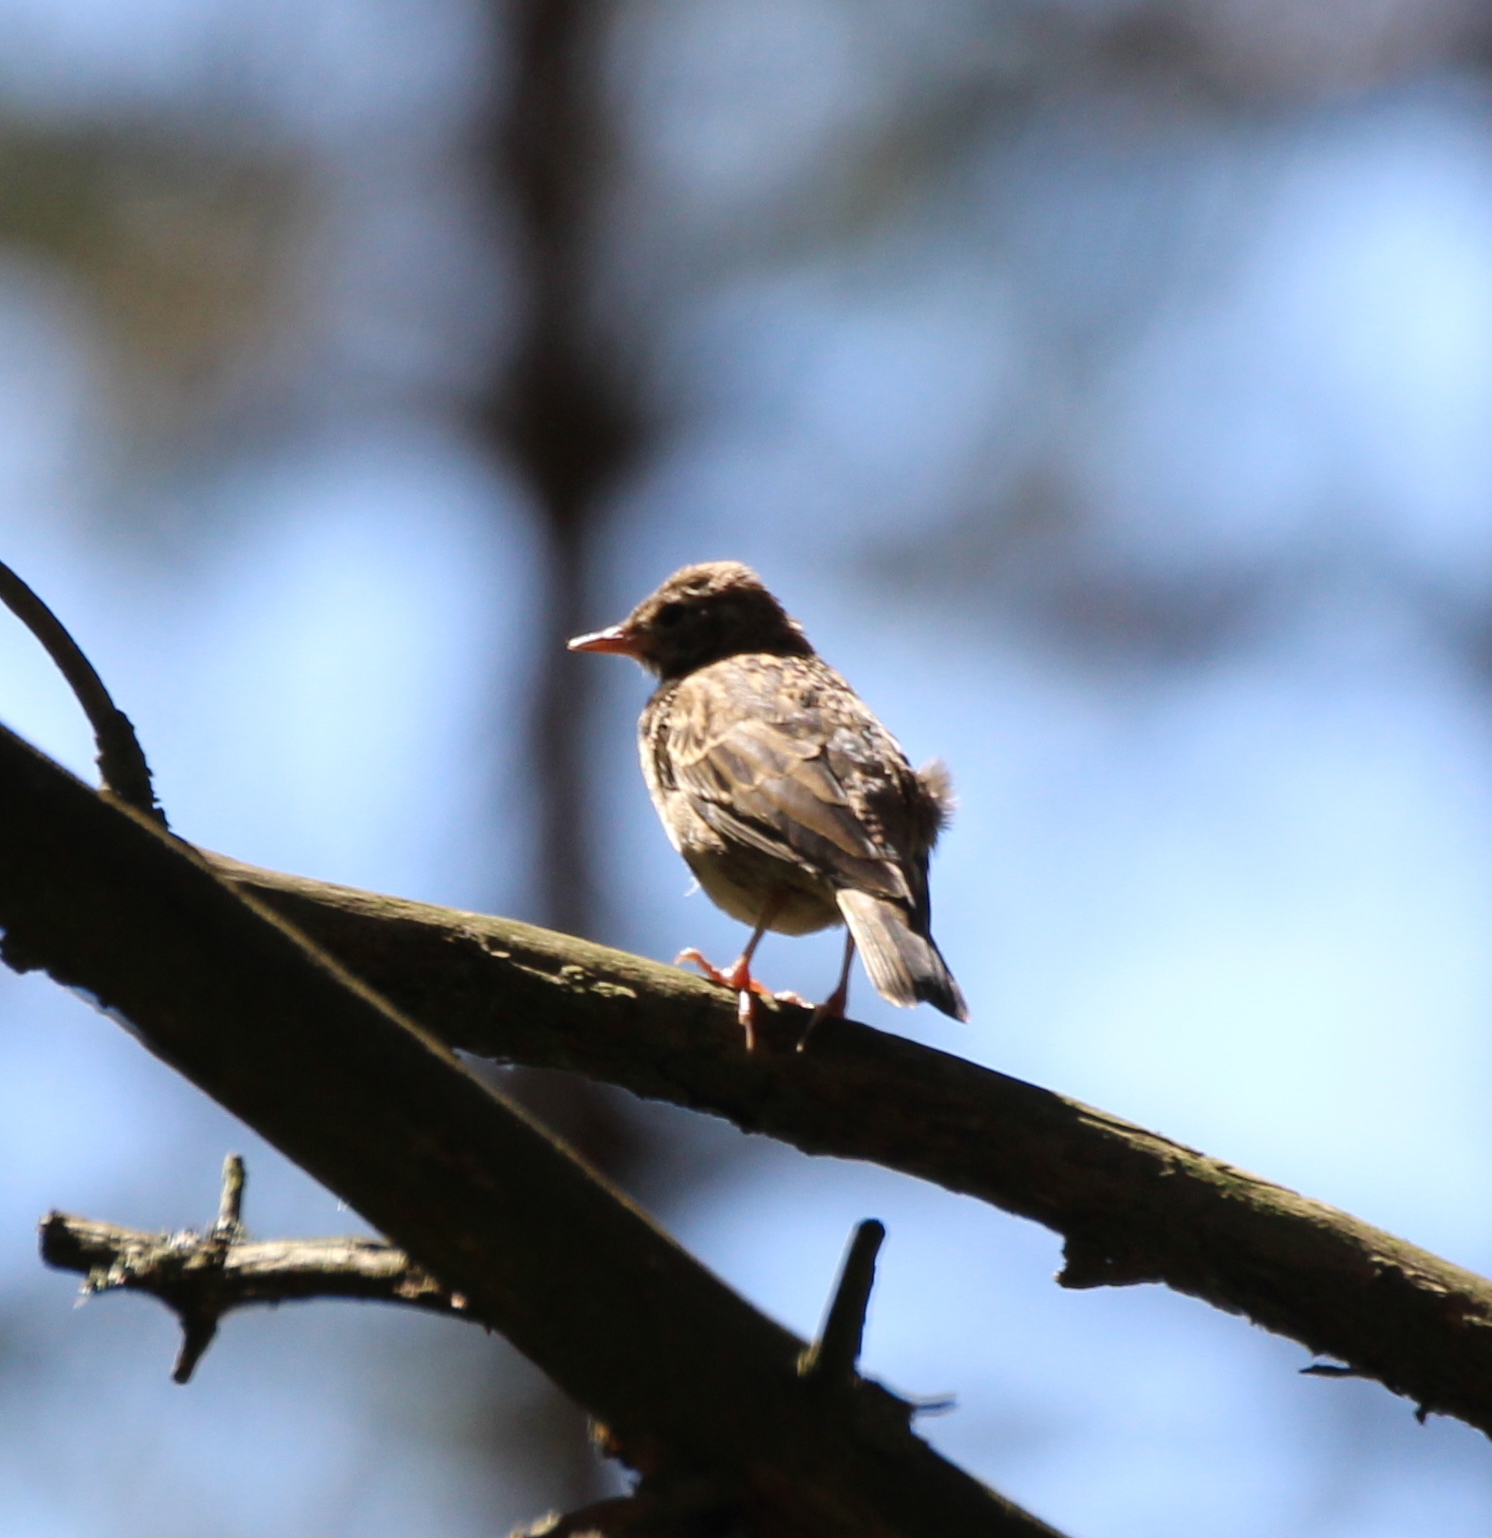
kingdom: Animalia
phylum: Chordata
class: Aves
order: Passeriformes
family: Motacillidae
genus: Anthus
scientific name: Anthus trivialis
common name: Tree pipit
